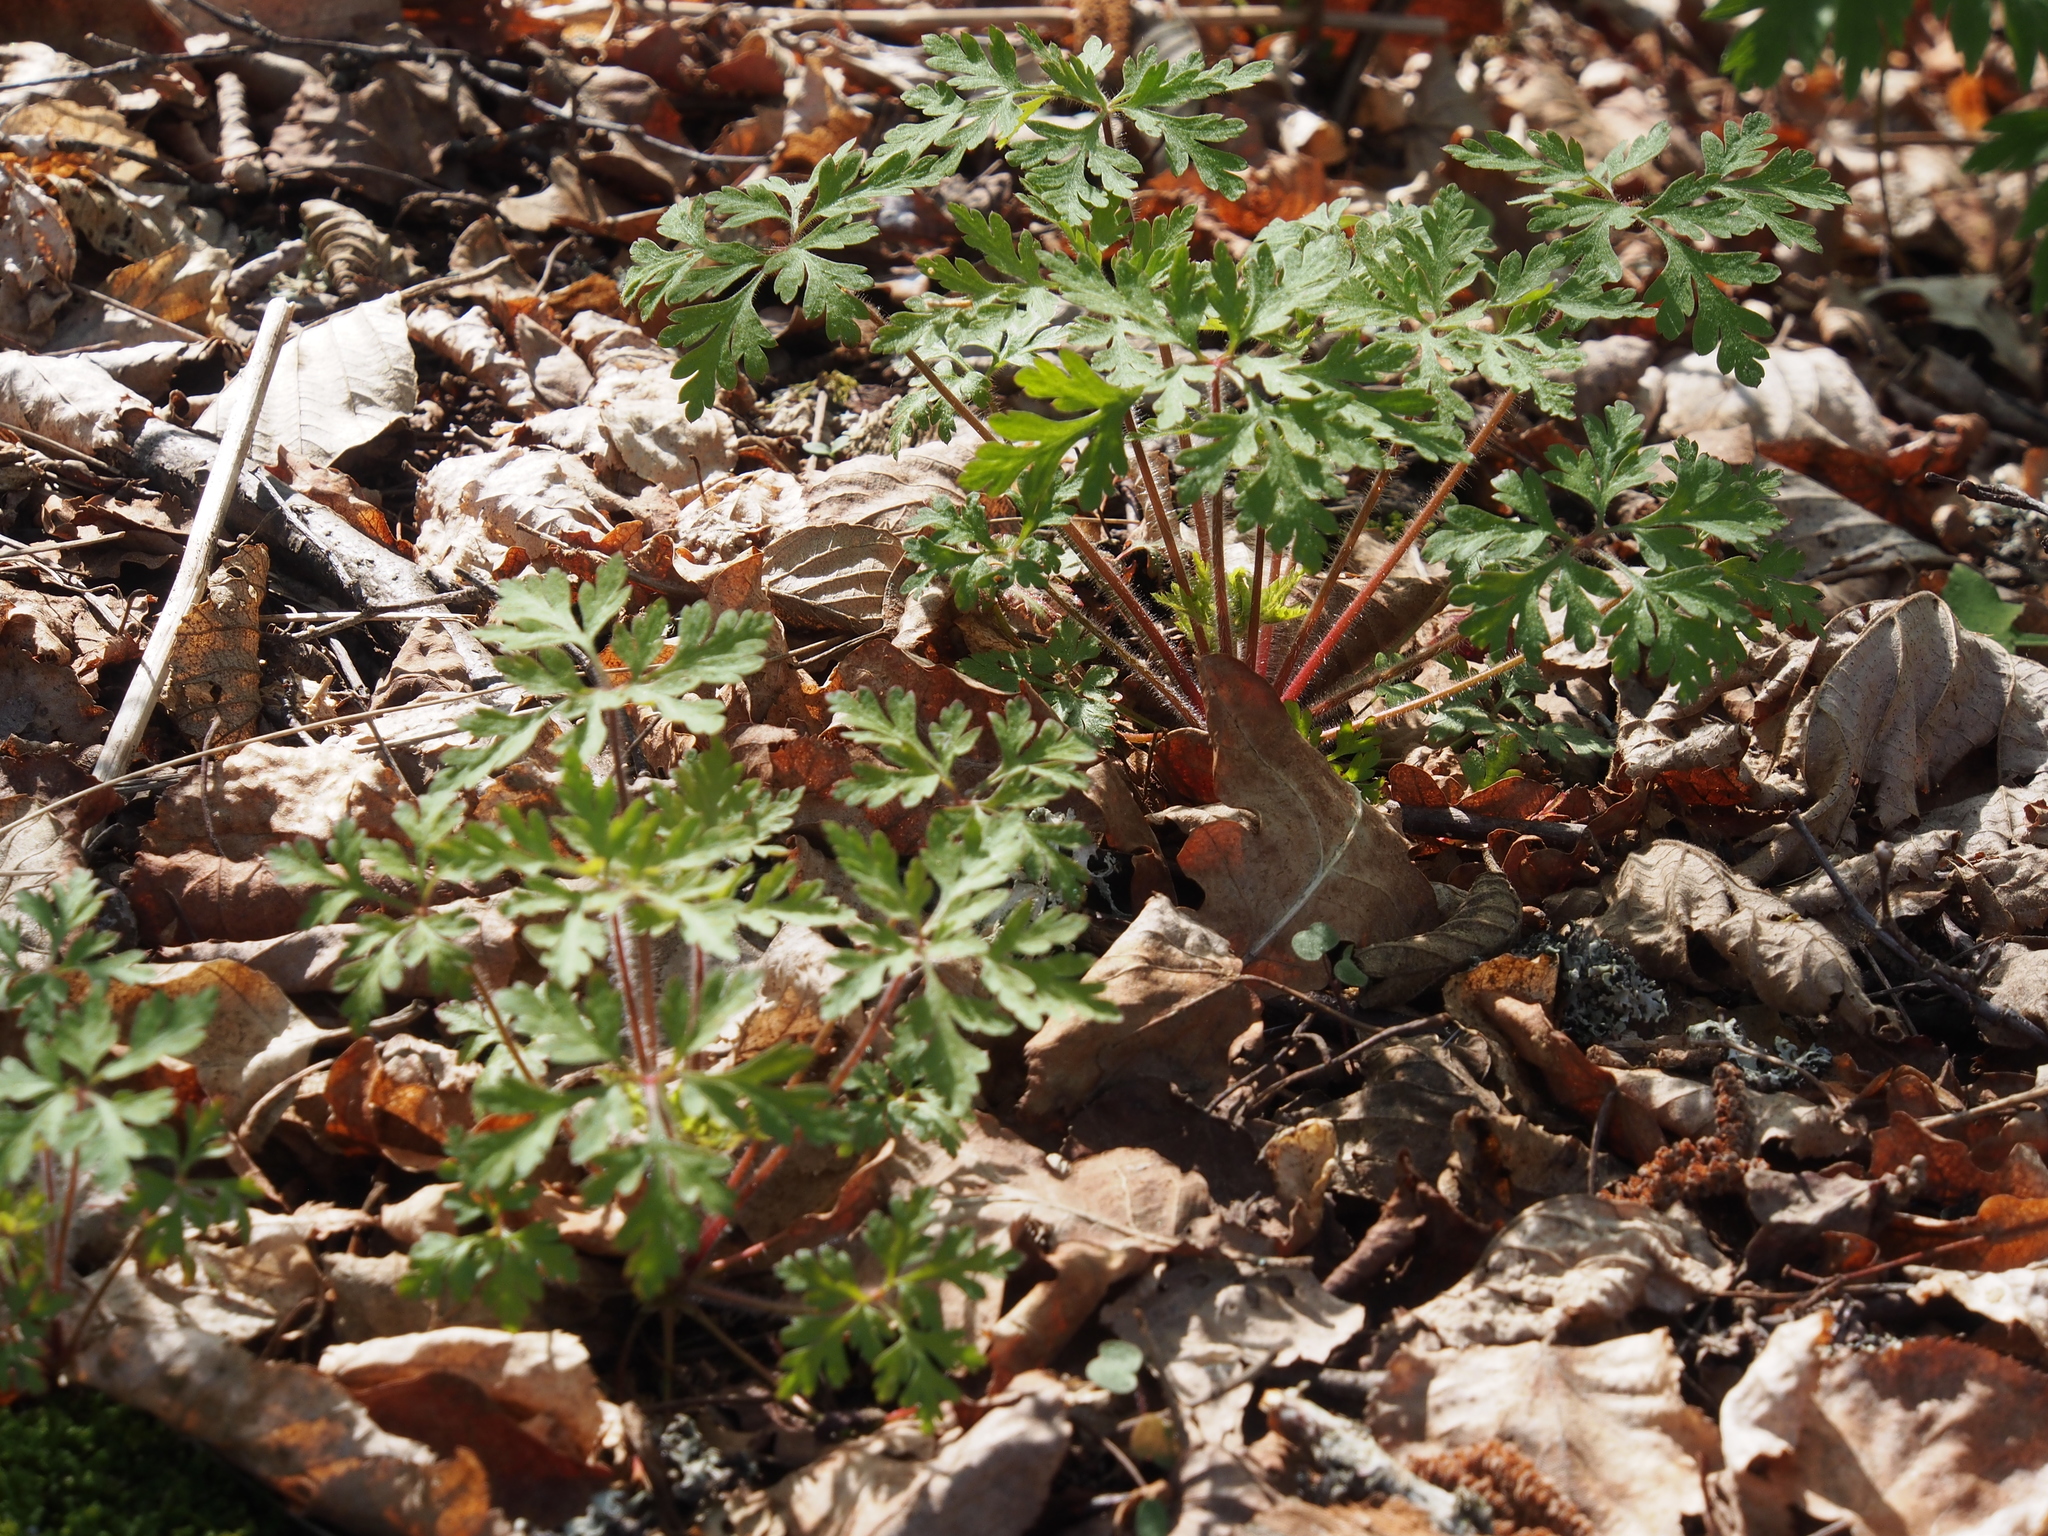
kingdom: Plantae
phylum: Tracheophyta
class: Magnoliopsida
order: Geraniales
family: Geraniaceae
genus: Geranium
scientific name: Geranium robertianum
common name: Herb-robert
